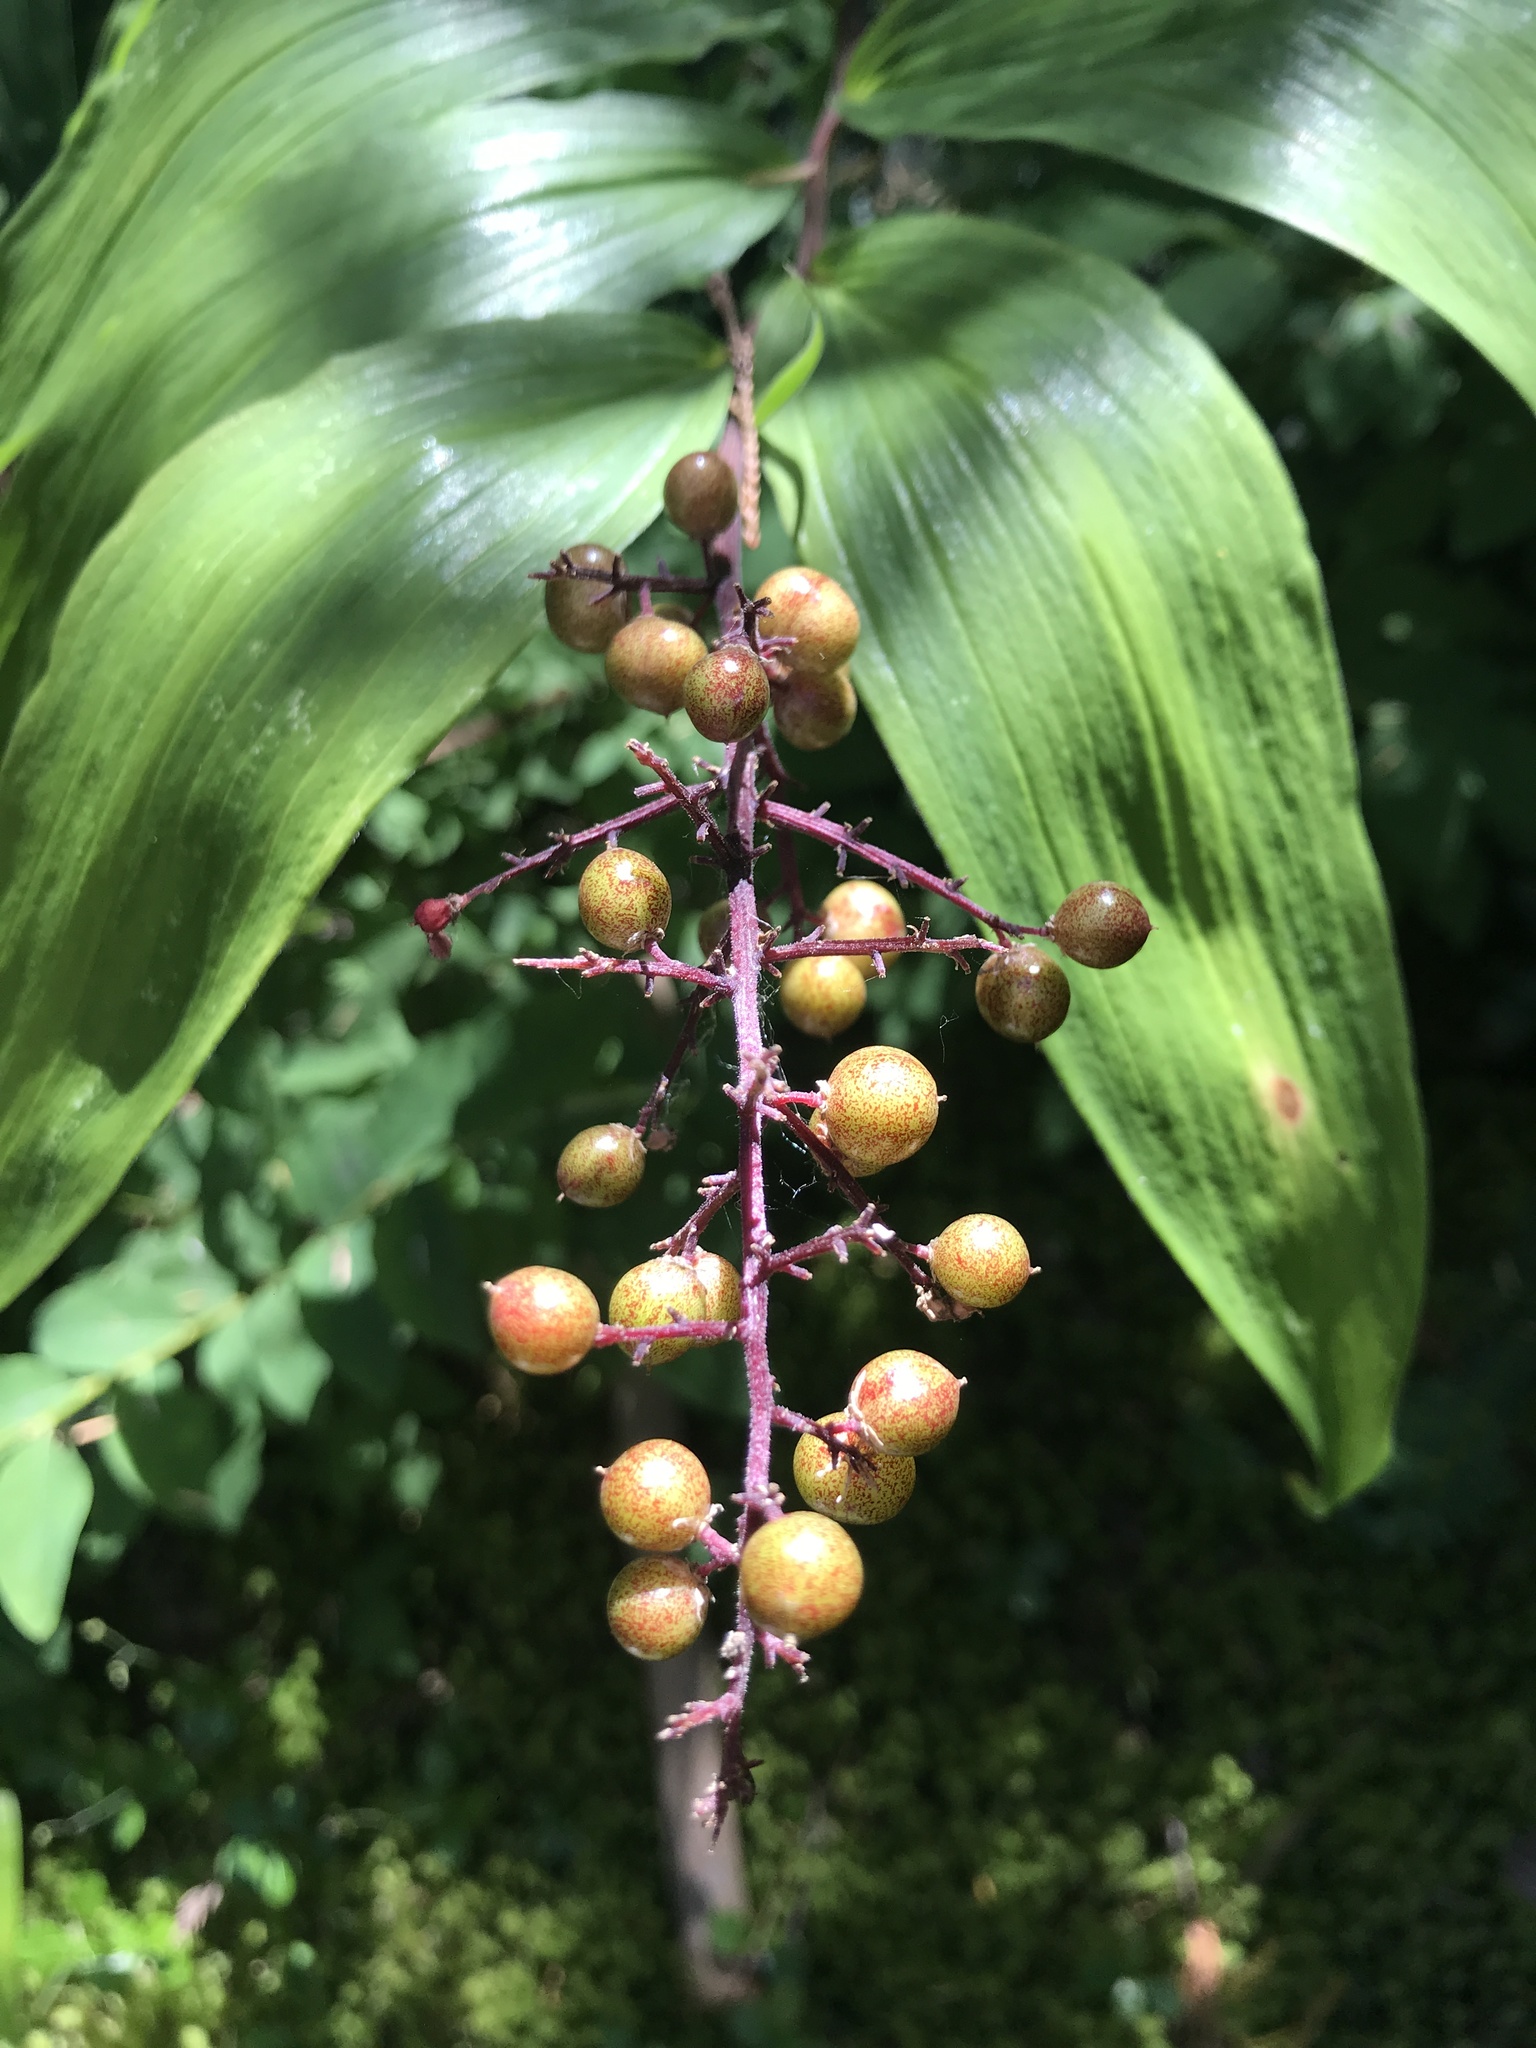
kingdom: Plantae
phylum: Tracheophyta
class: Liliopsida
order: Asparagales
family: Asparagaceae
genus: Maianthemum
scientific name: Maianthemum racemosum
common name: False spikenard
